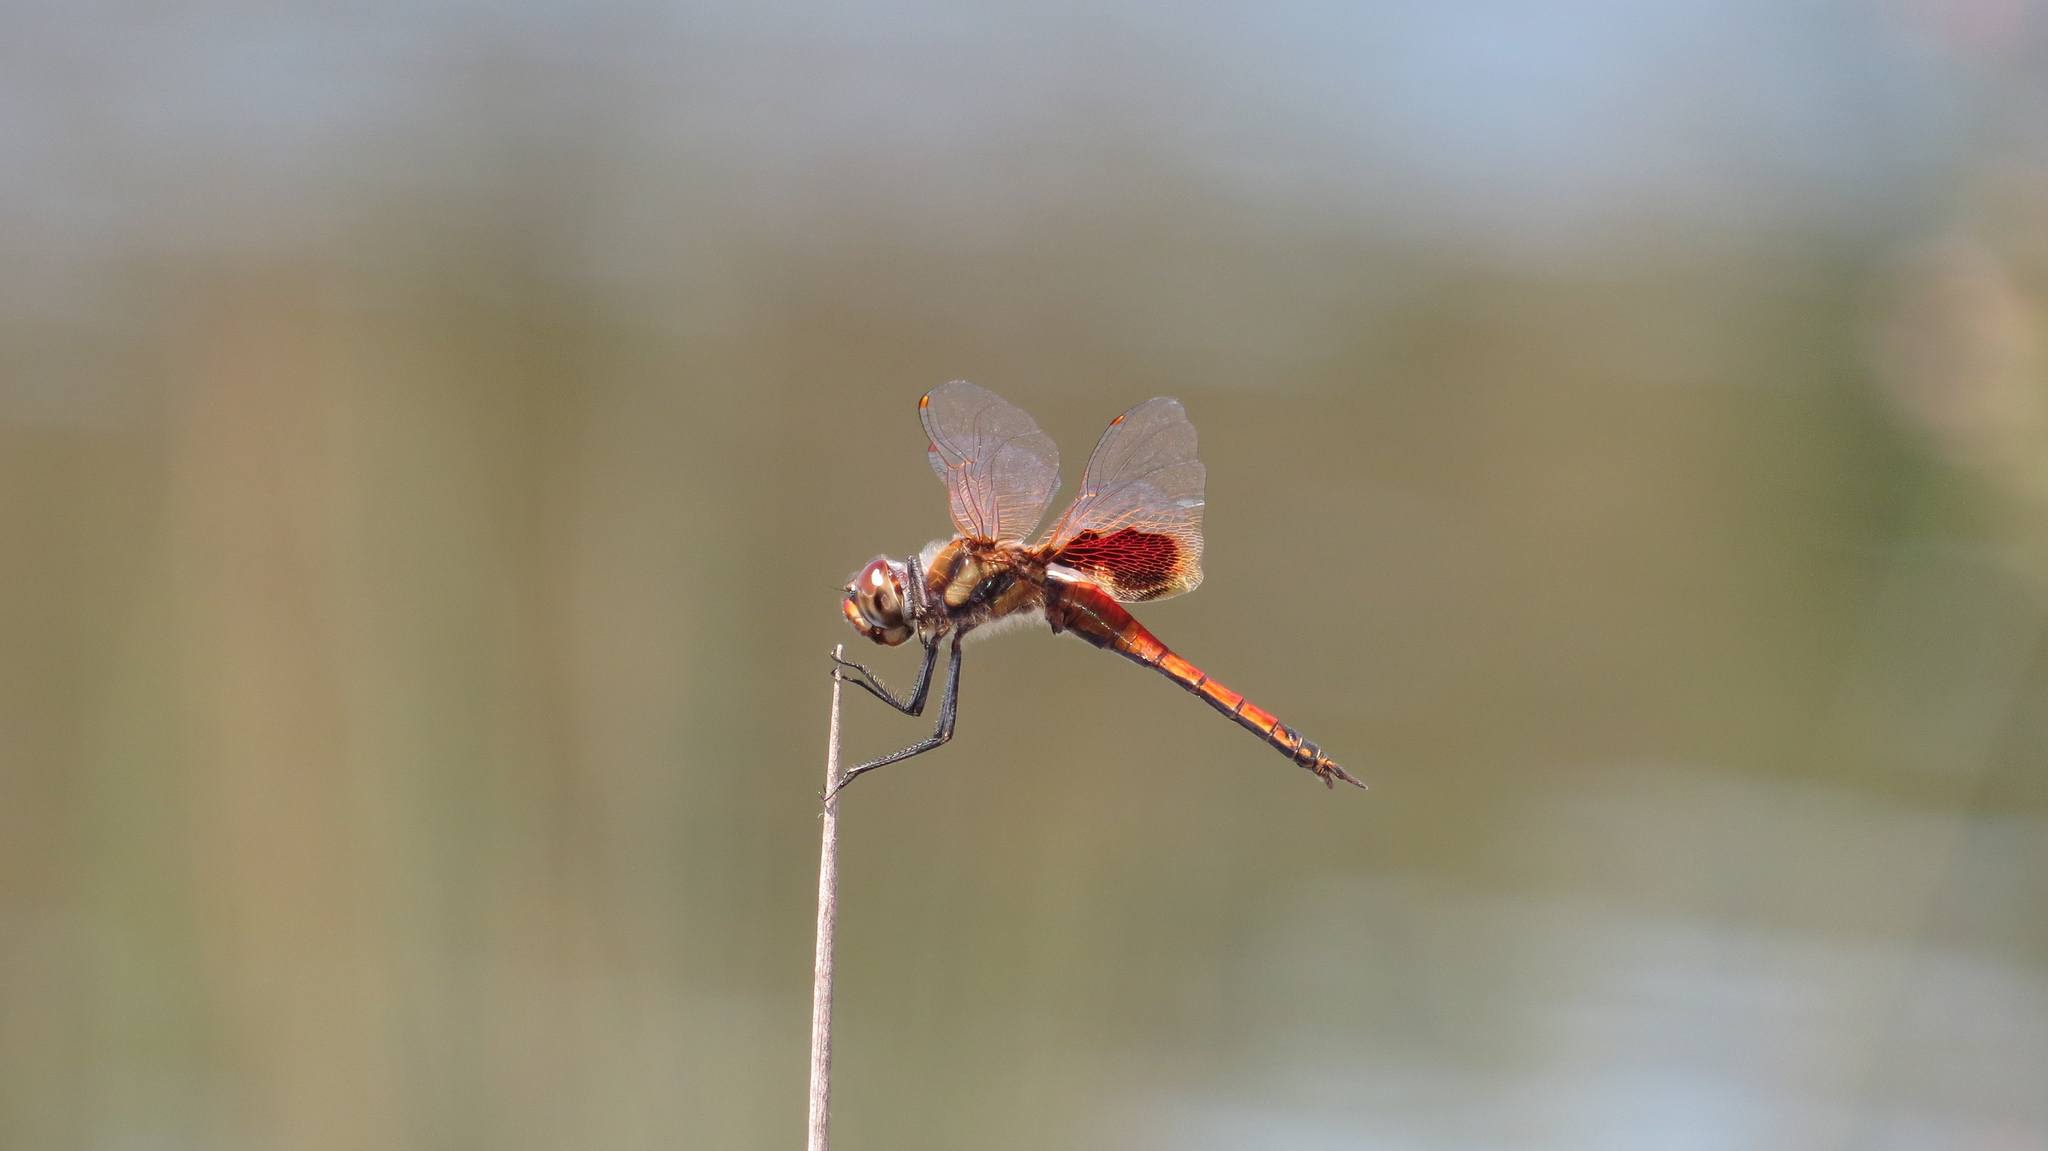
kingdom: Animalia
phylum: Arthropoda
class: Insecta
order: Odonata
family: Libellulidae
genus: Tramea
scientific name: Tramea loewii
